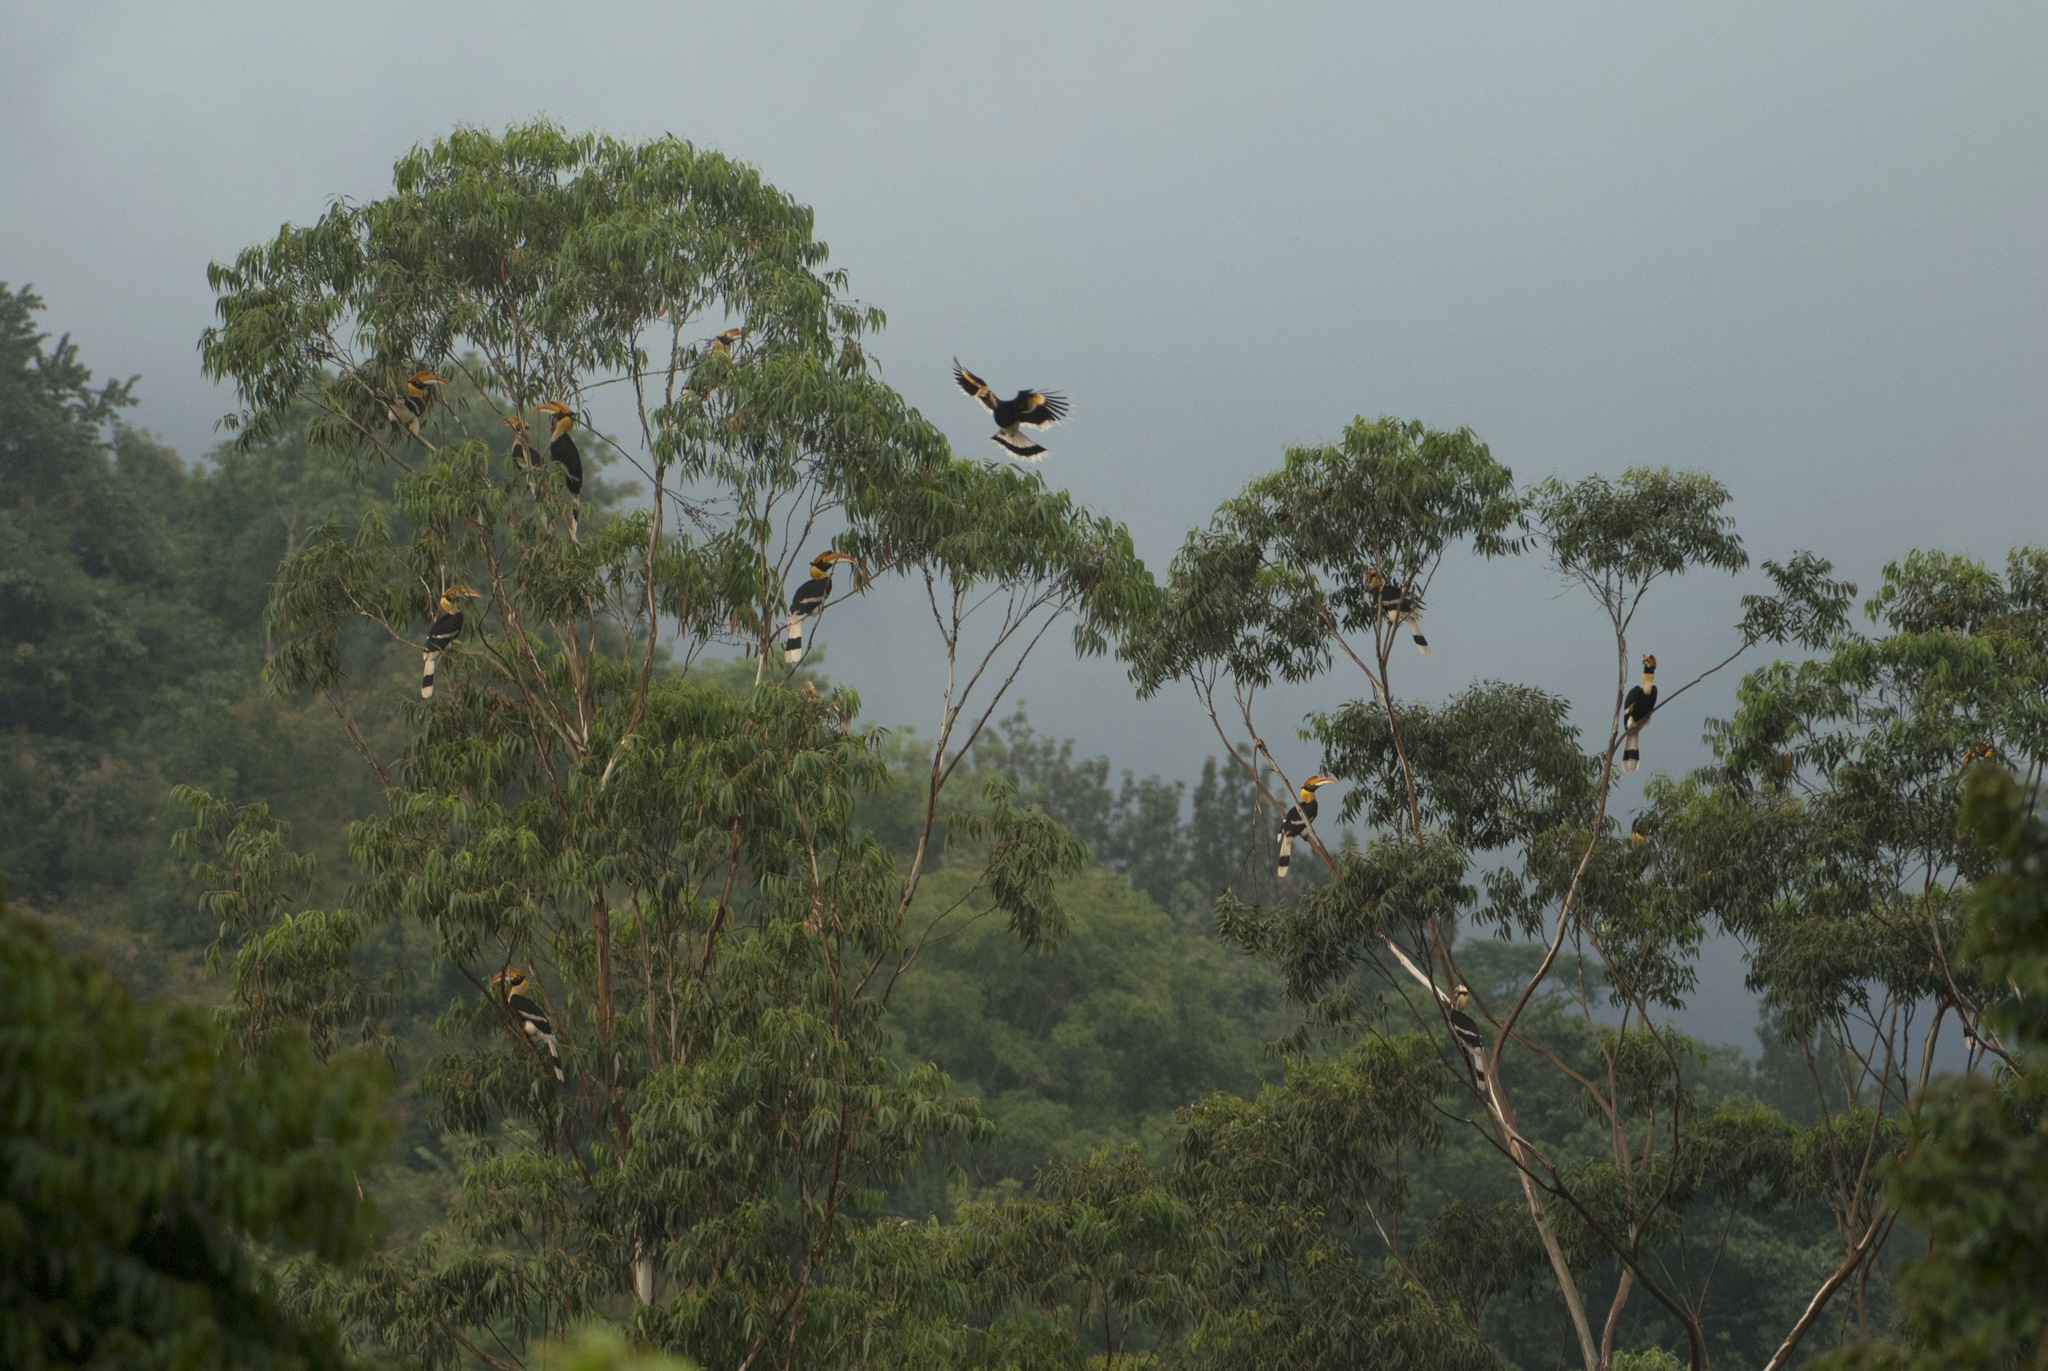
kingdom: Animalia
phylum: Chordata
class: Aves
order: Bucerotiformes
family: Bucerotidae
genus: Buceros
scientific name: Buceros bicornis
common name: Great hornbill
